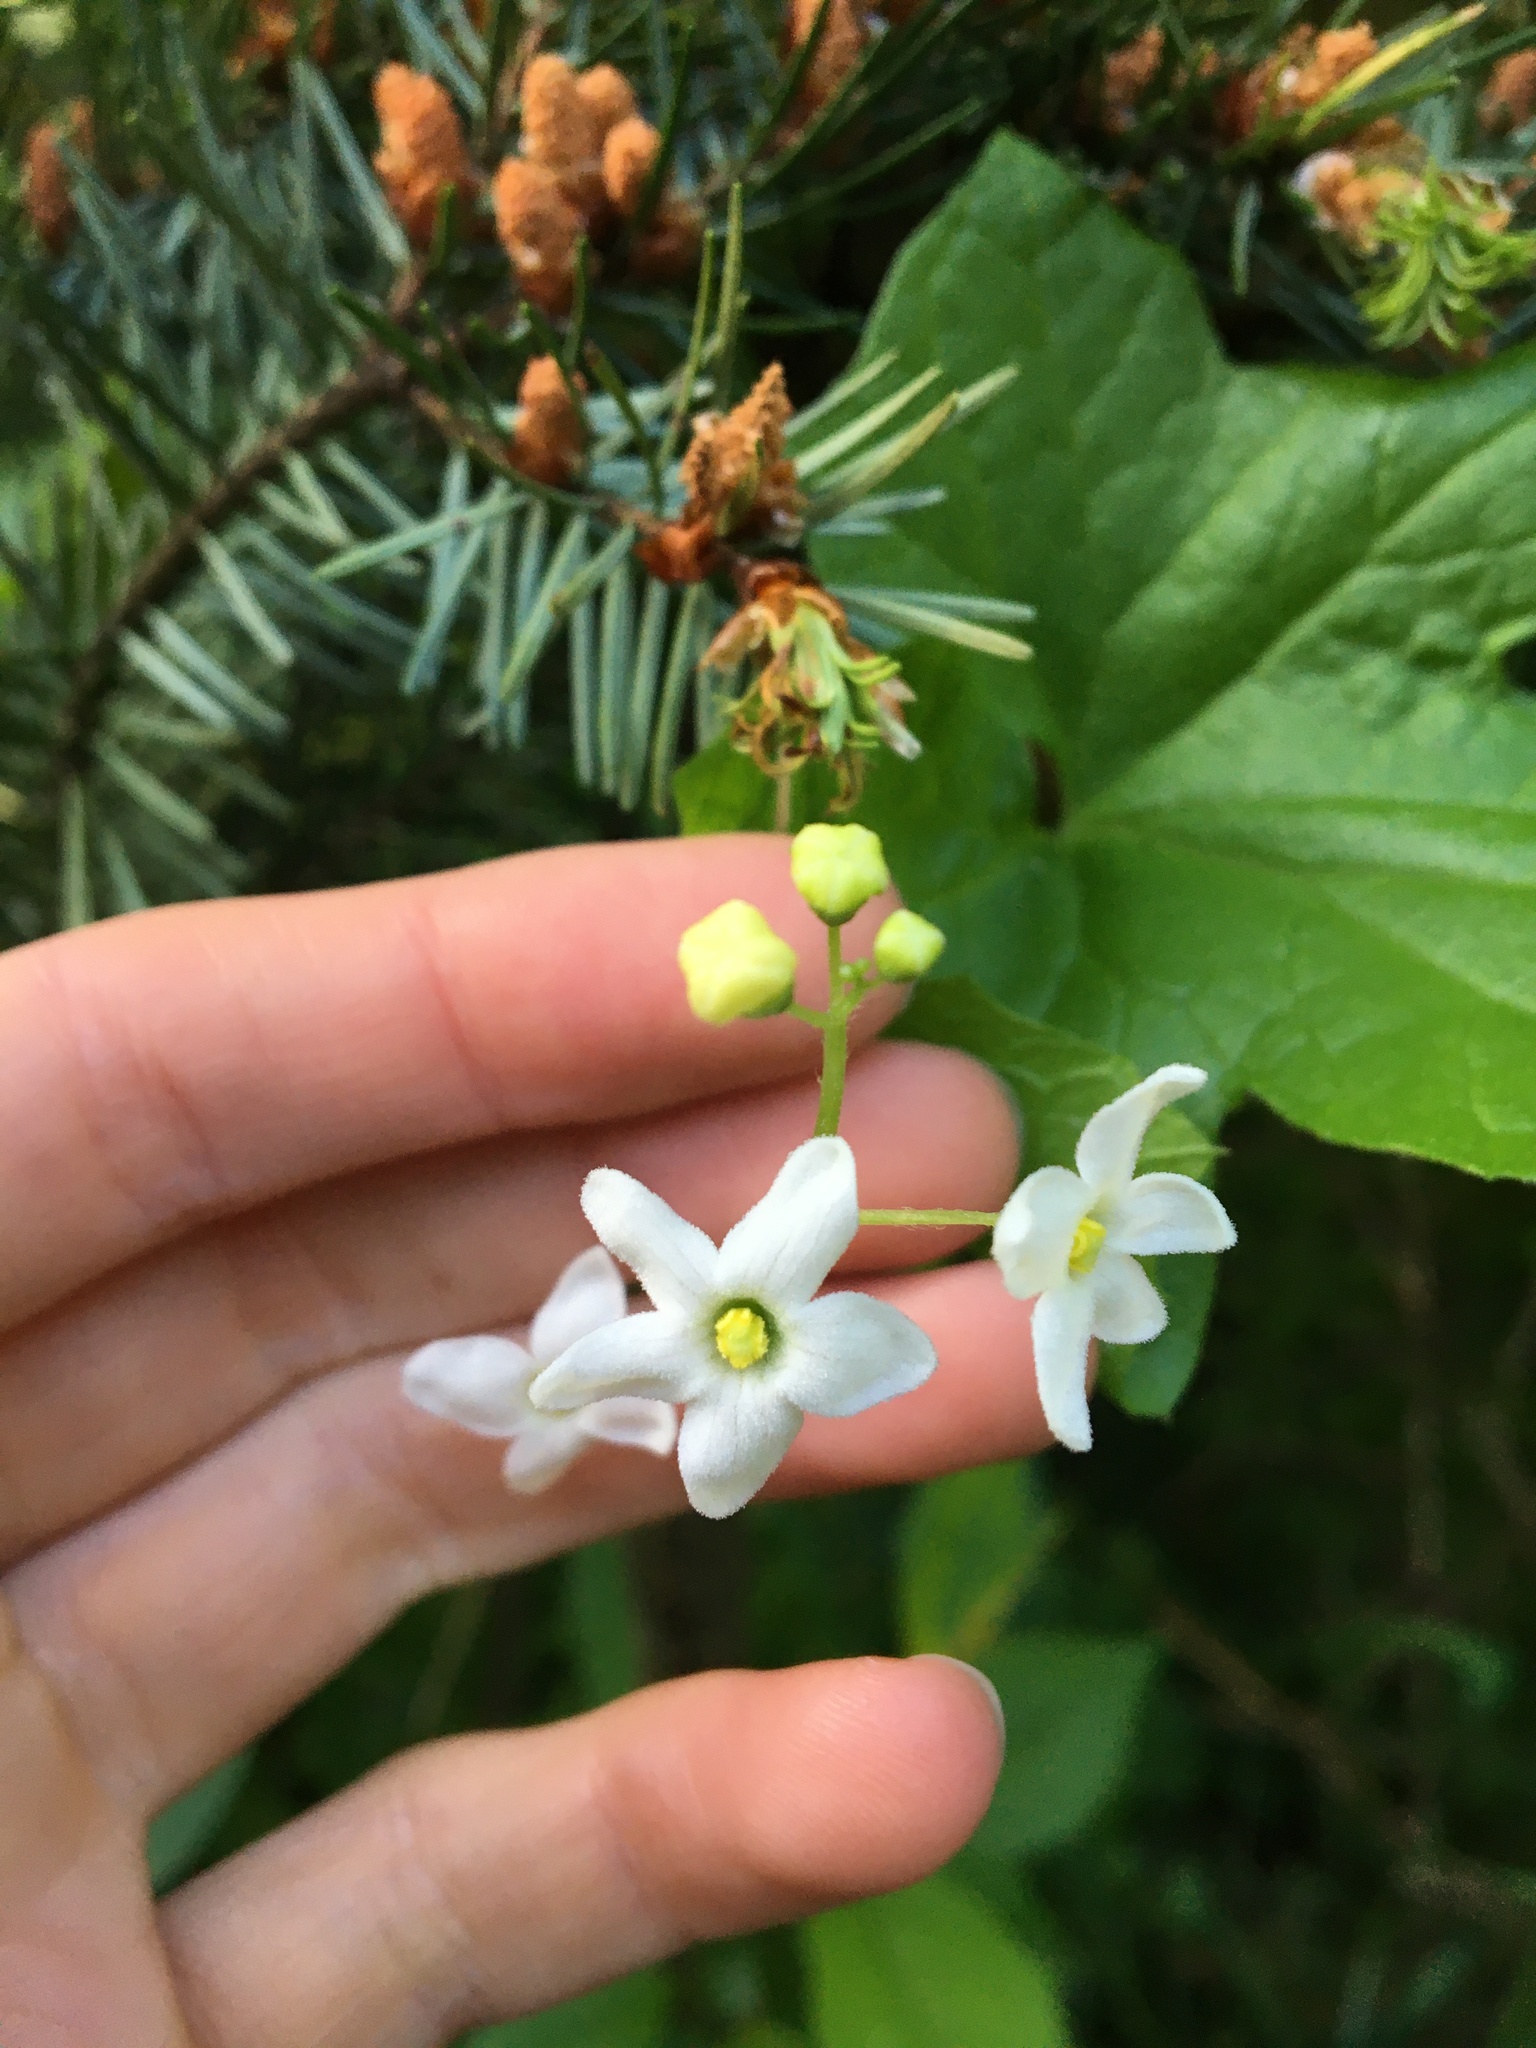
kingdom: Plantae
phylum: Tracheophyta
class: Magnoliopsida
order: Cucurbitales
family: Cucurbitaceae
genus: Marah
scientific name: Marah oregana
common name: Coastal manroot
